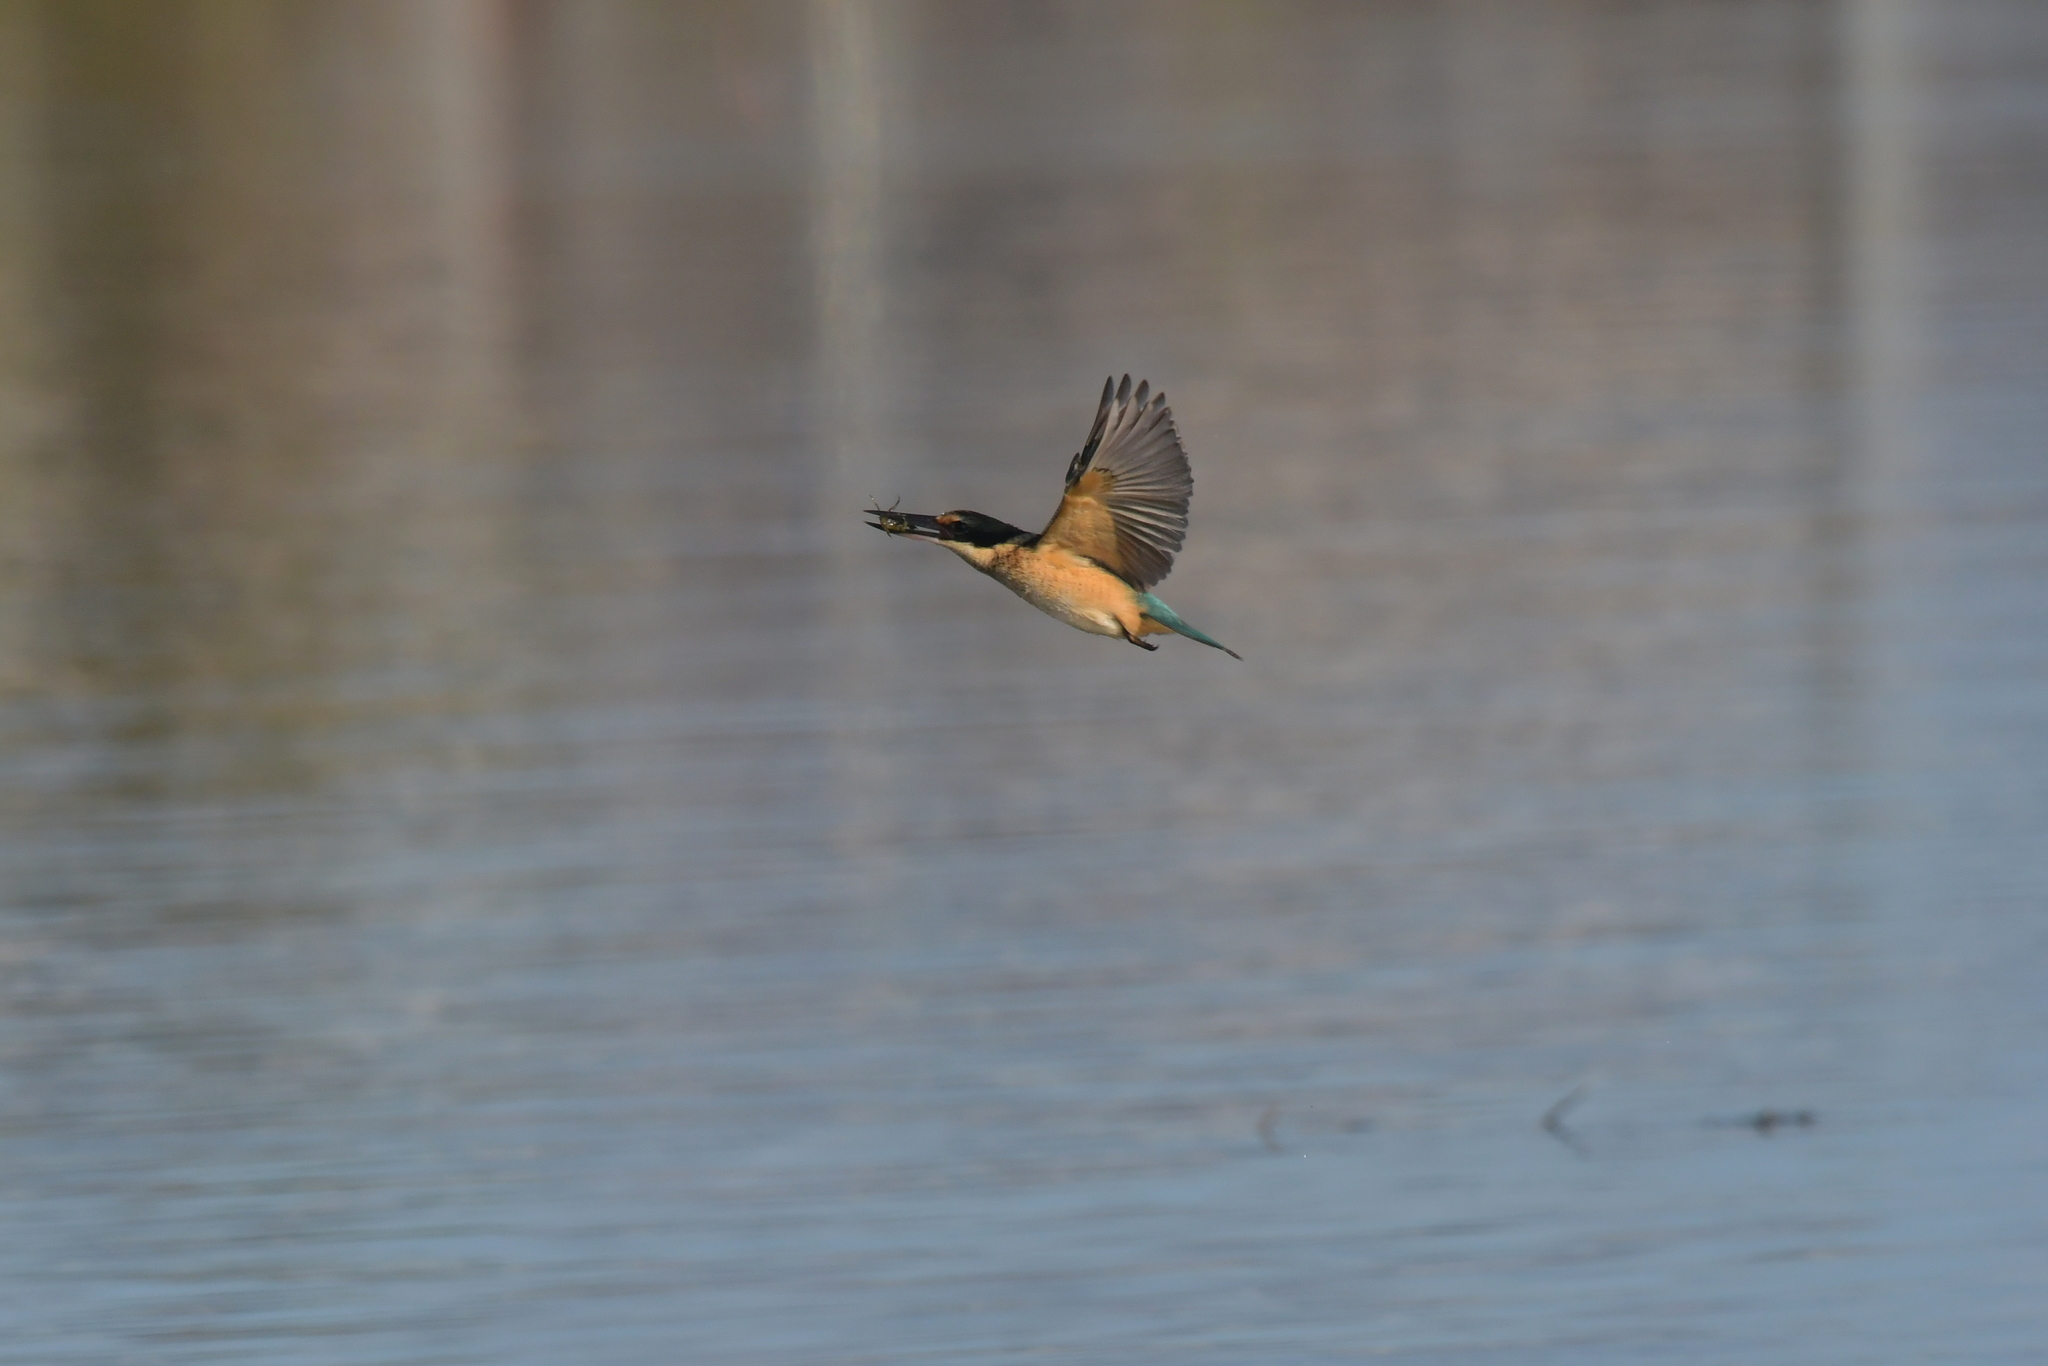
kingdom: Animalia
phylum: Chordata
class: Aves
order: Coraciiformes
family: Alcedinidae
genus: Todiramphus
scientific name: Todiramphus sanctus
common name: Sacred kingfisher
